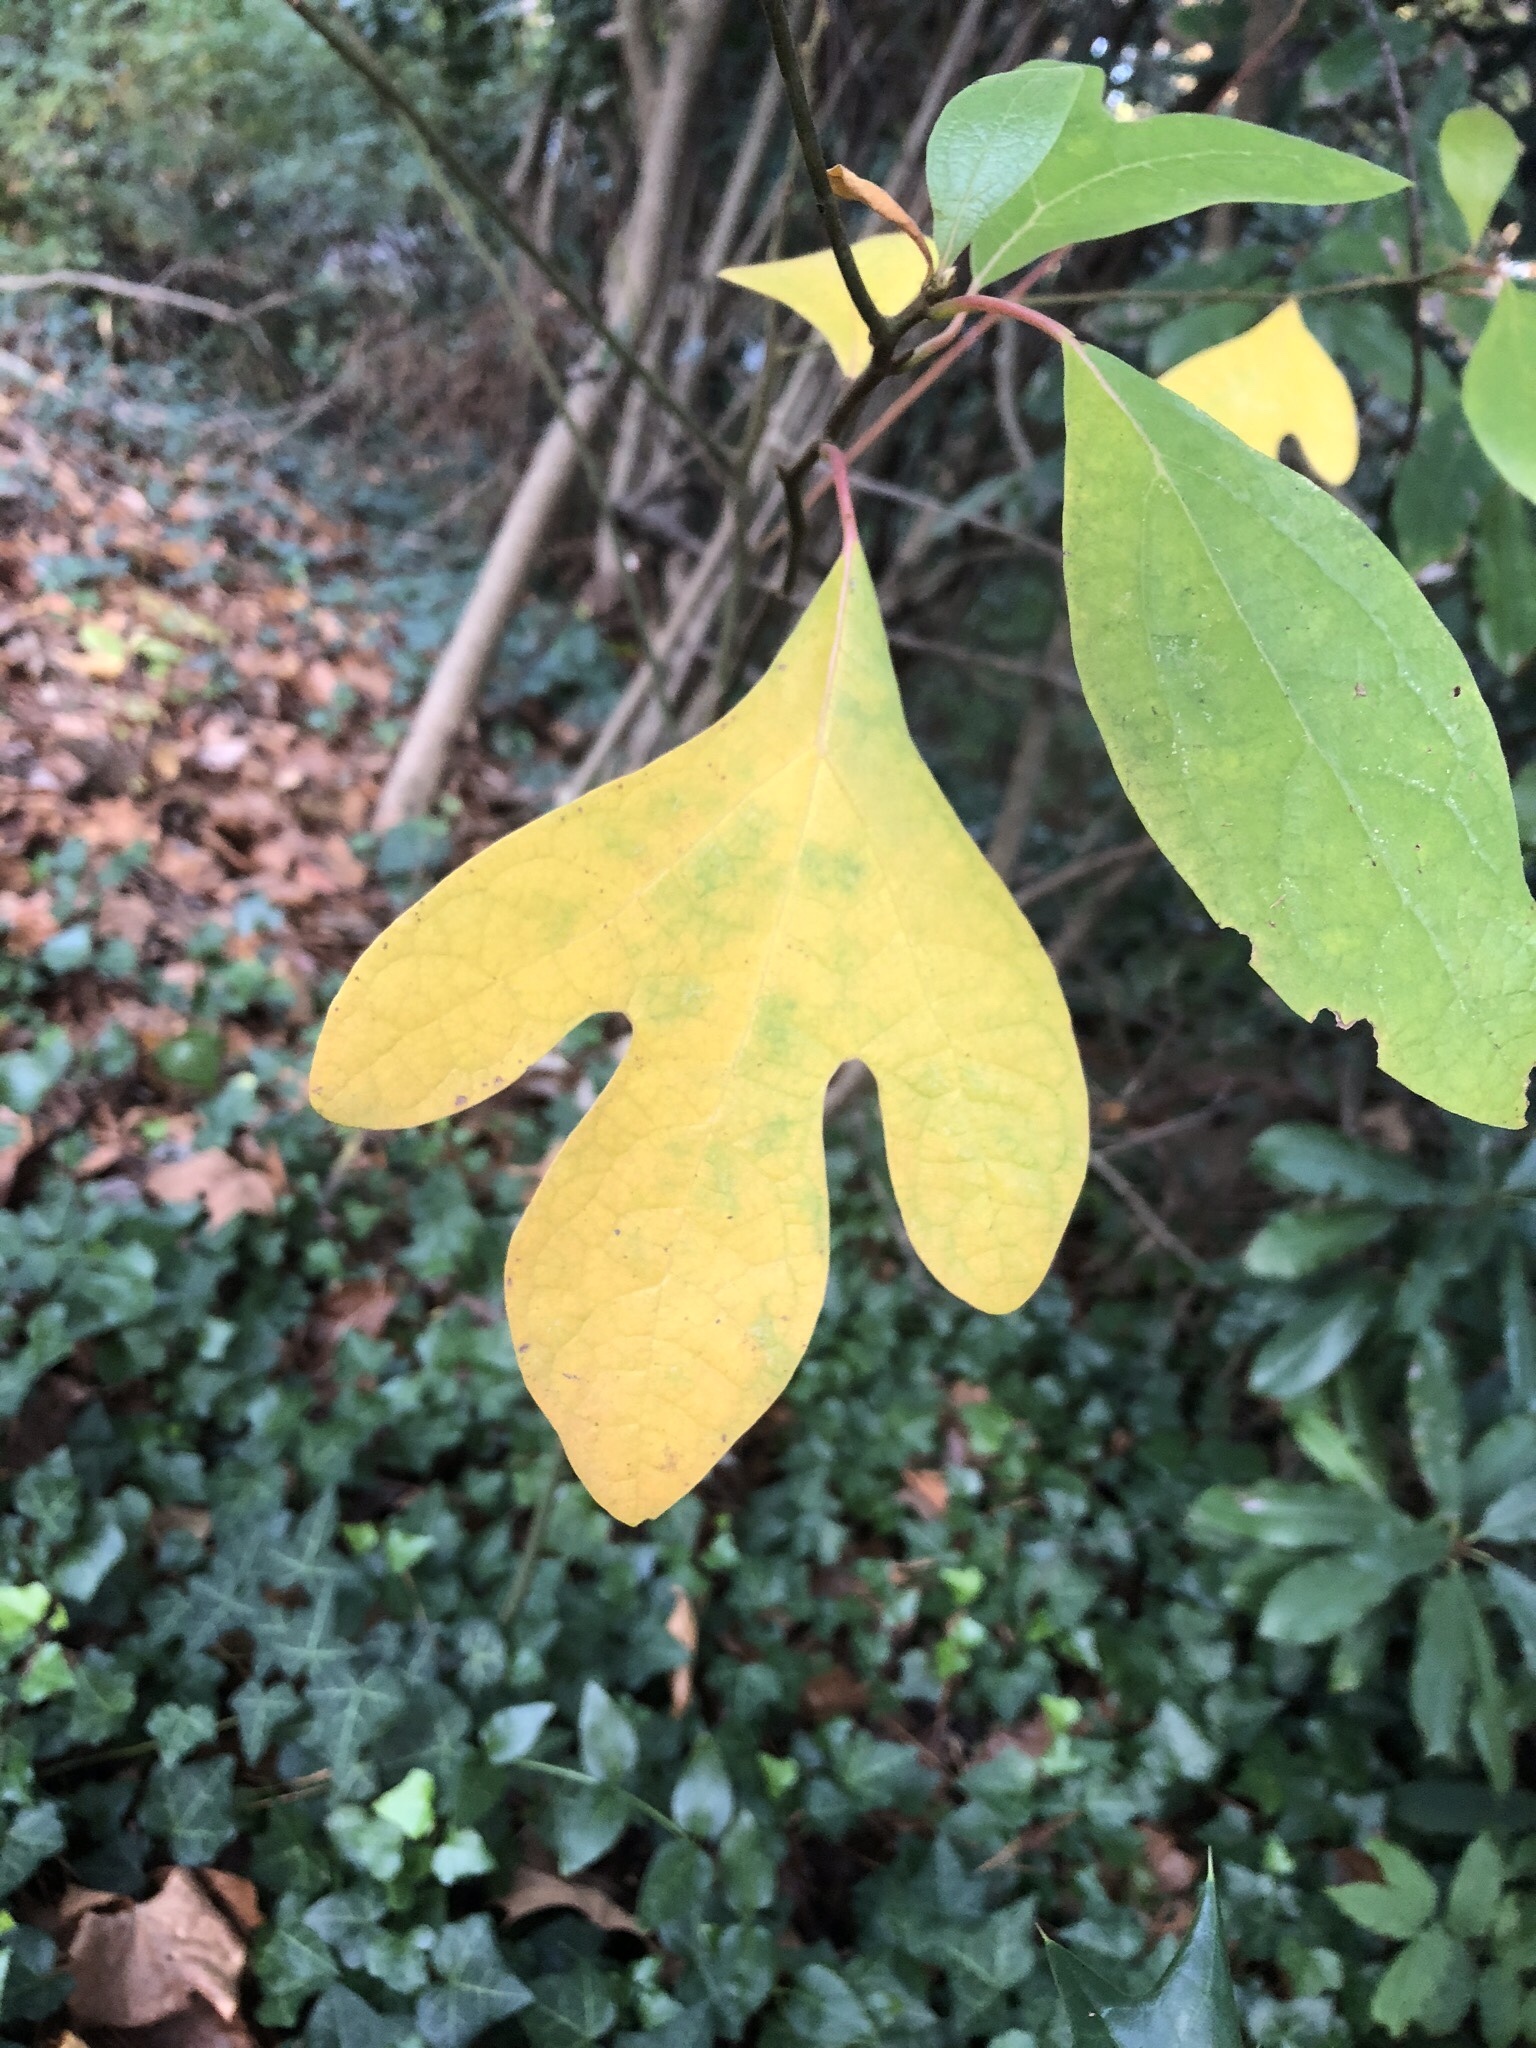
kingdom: Plantae
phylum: Tracheophyta
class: Magnoliopsida
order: Laurales
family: Lauraceae
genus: Sassafras
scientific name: Sassafras albidum
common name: Sassafras
